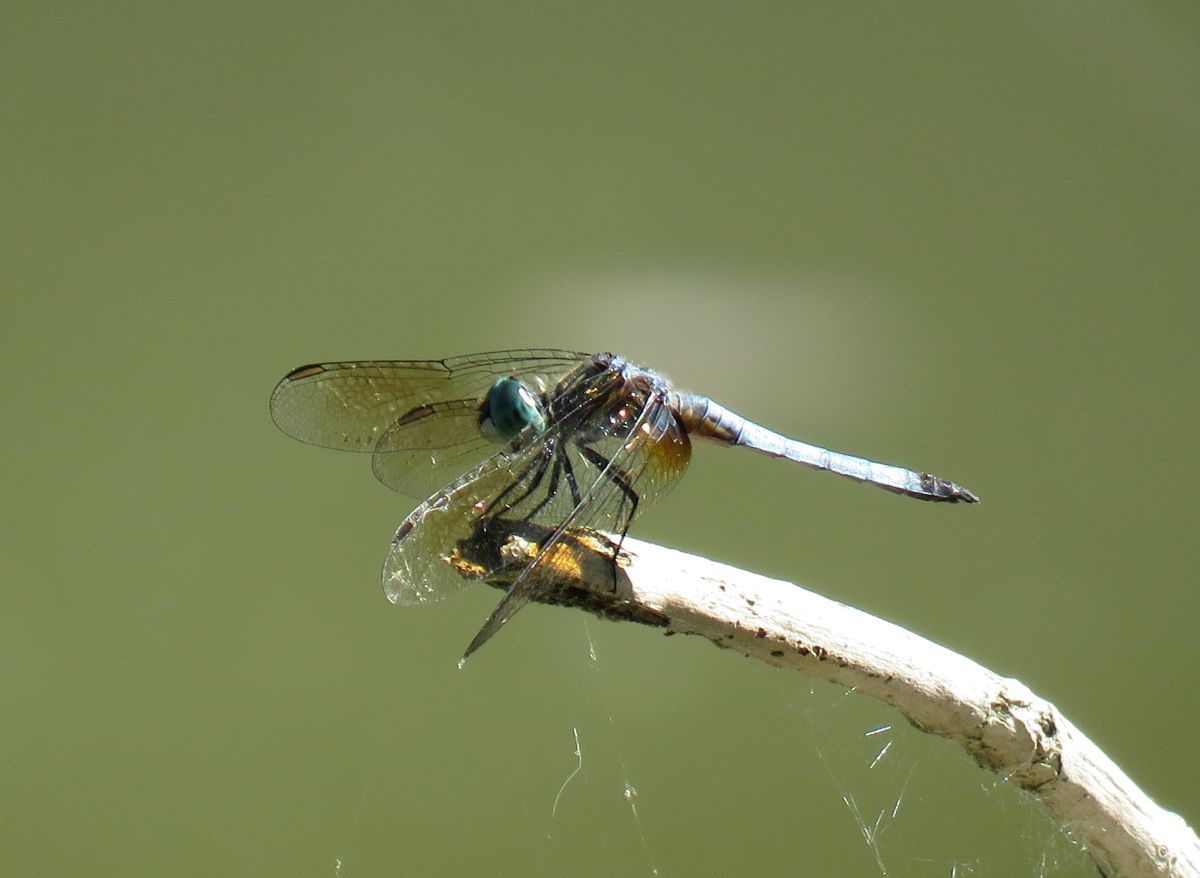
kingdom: Animalia
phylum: Arthropoda
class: Insecta
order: Odonata
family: Libellulidae
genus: Pachydiplax
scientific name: Pachydiplax longipennis
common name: Blue dasher
